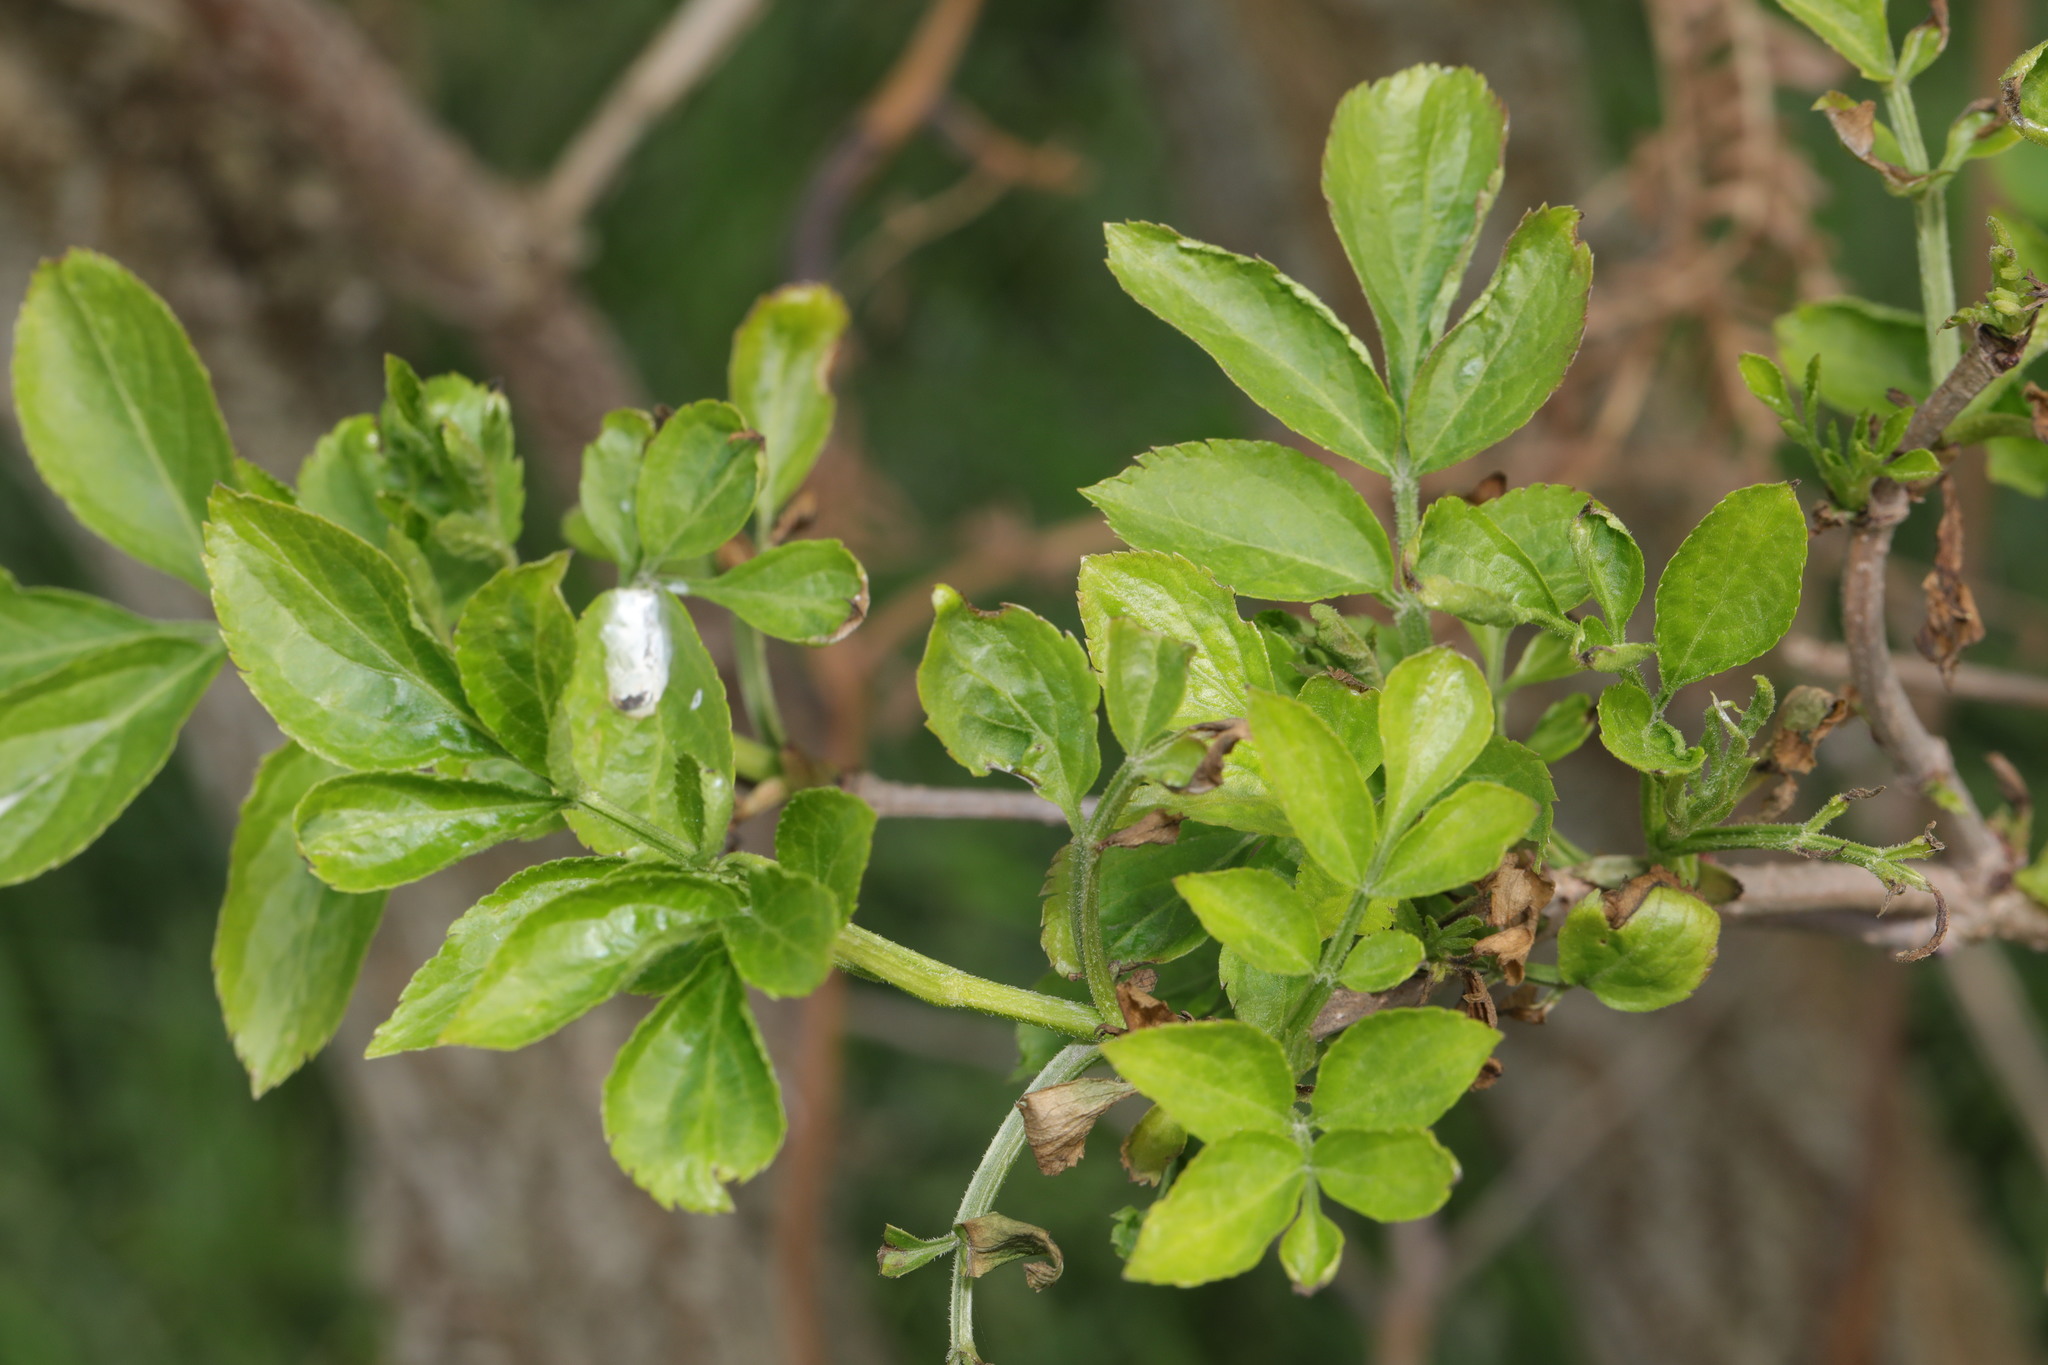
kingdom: Plantae
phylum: Tracheophyta
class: Magnoliopsida
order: Dipsacales
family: Viburnaceae
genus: Sambucus
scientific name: Sambucus nigra
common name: Elder
